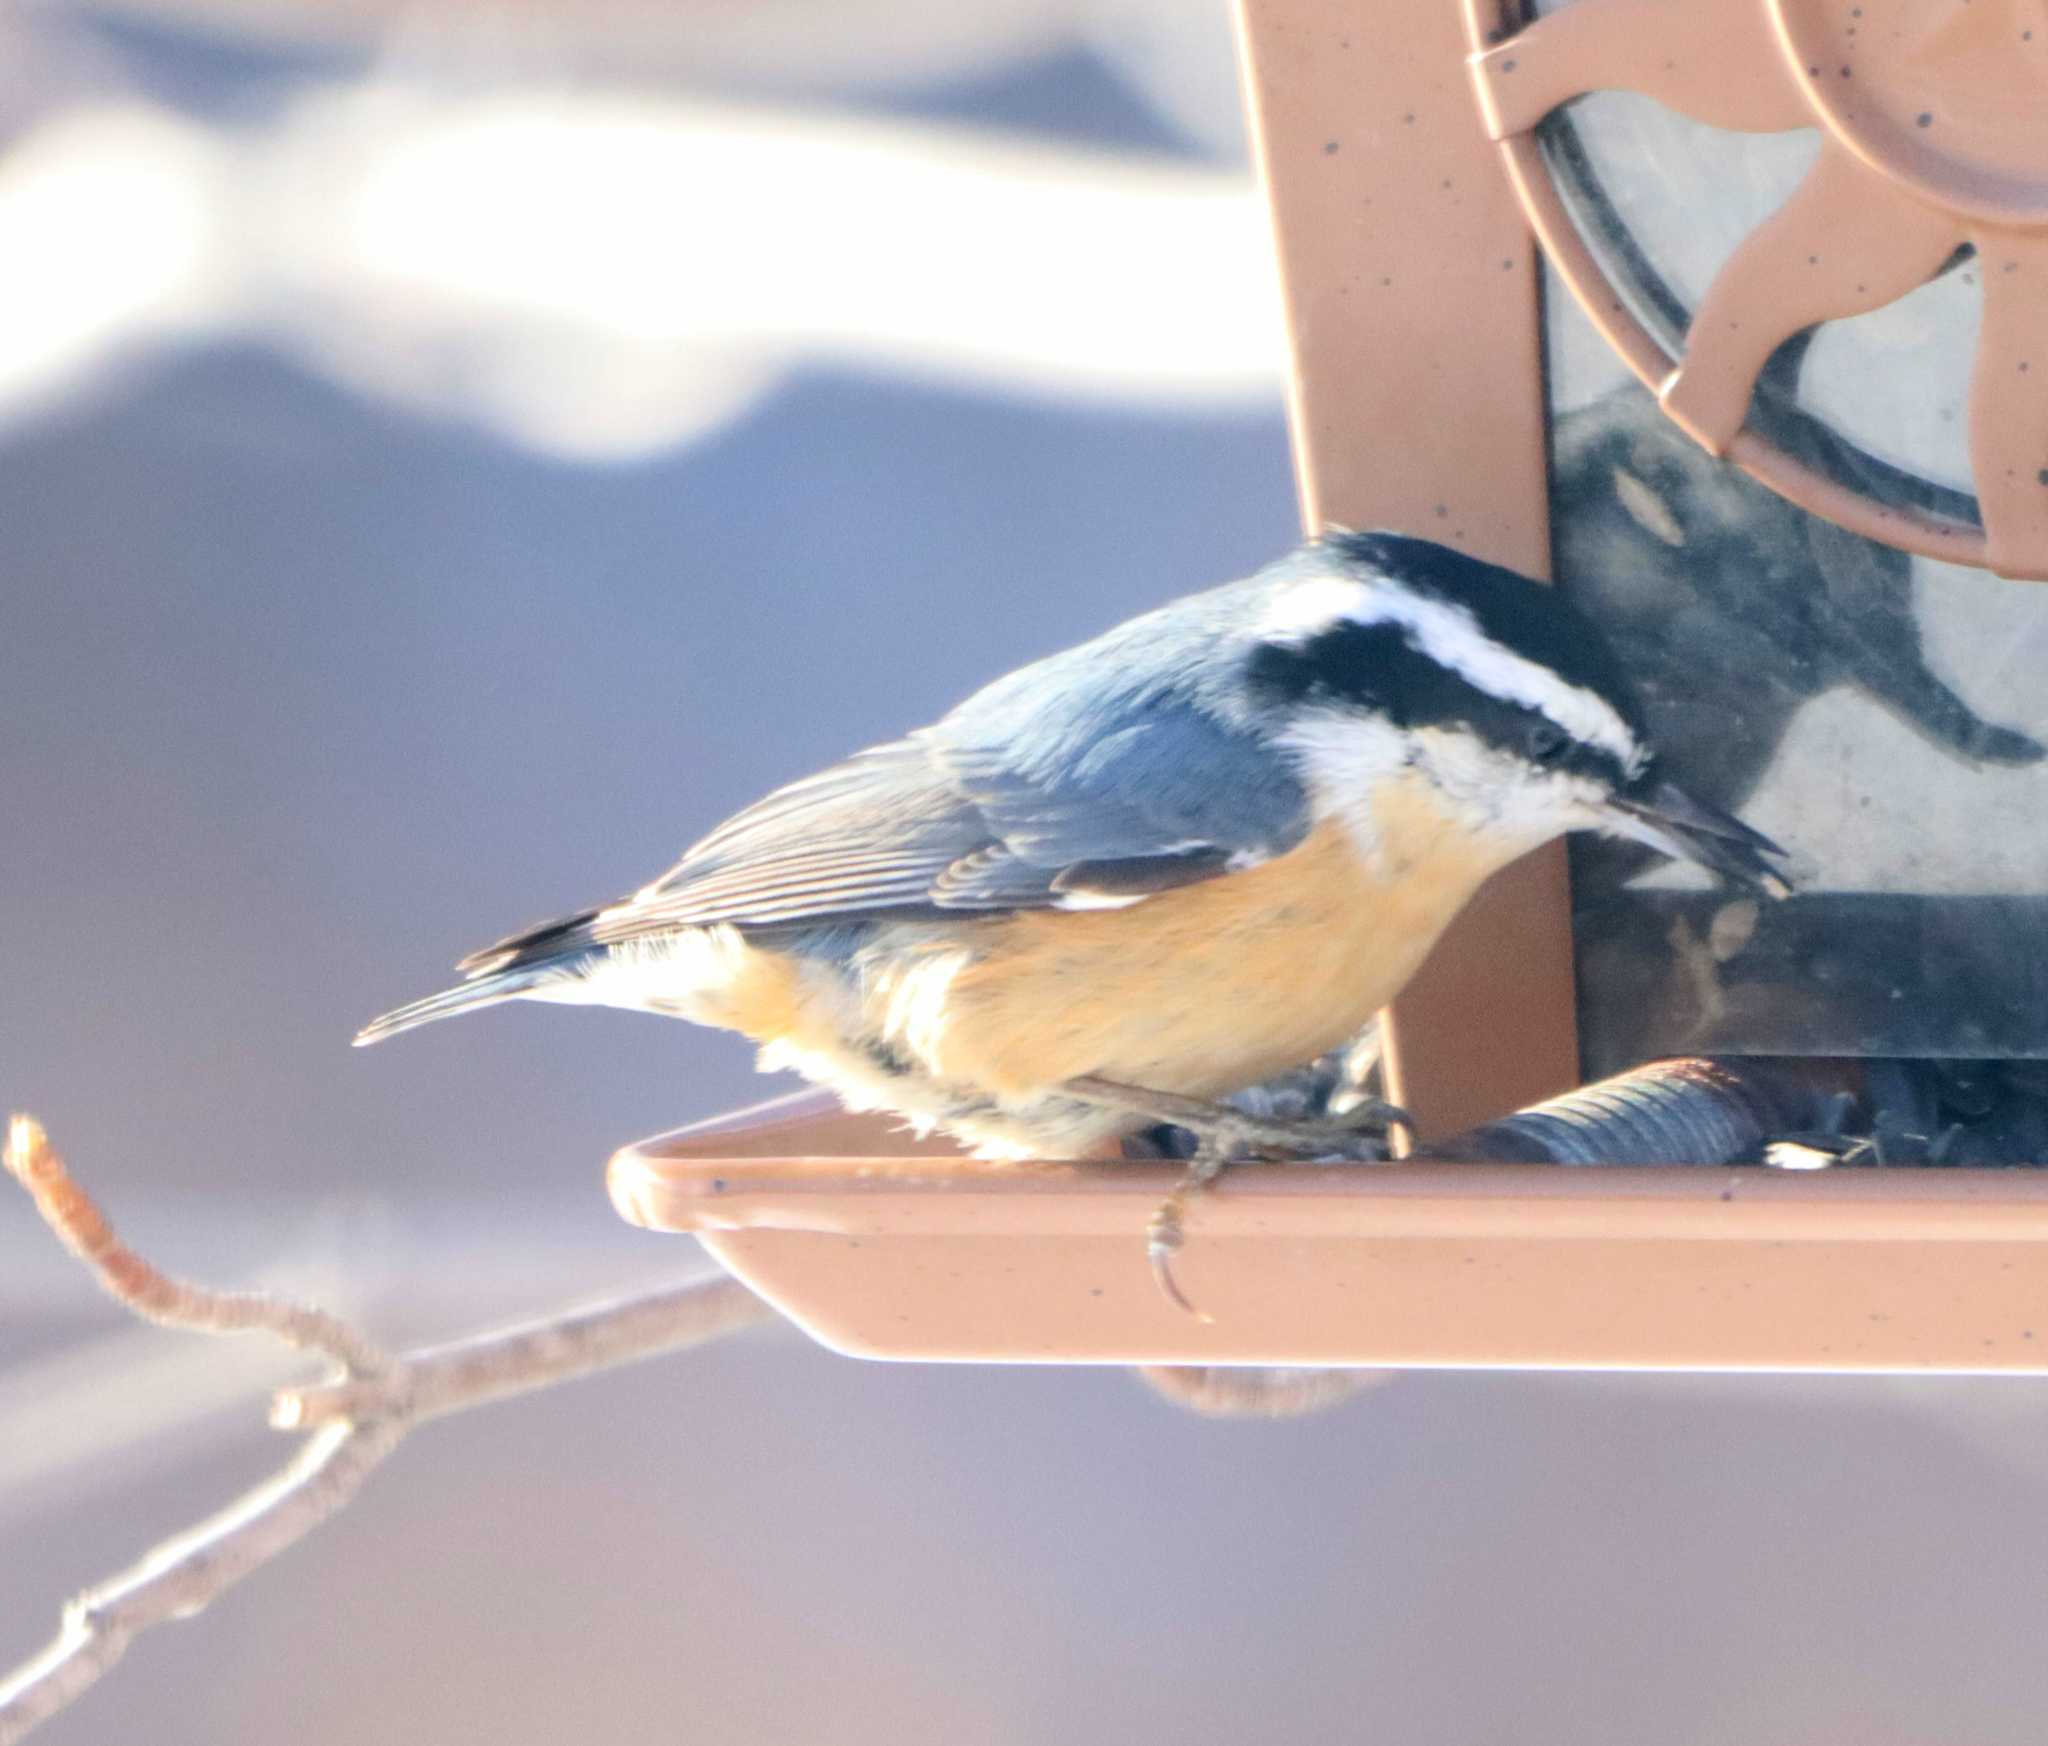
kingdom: Animalia
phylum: Chordata
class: Aves
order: Passeriformes
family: Sittidae
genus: Sitta
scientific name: Sitta canadensis
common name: Red-breasted nuthatch
